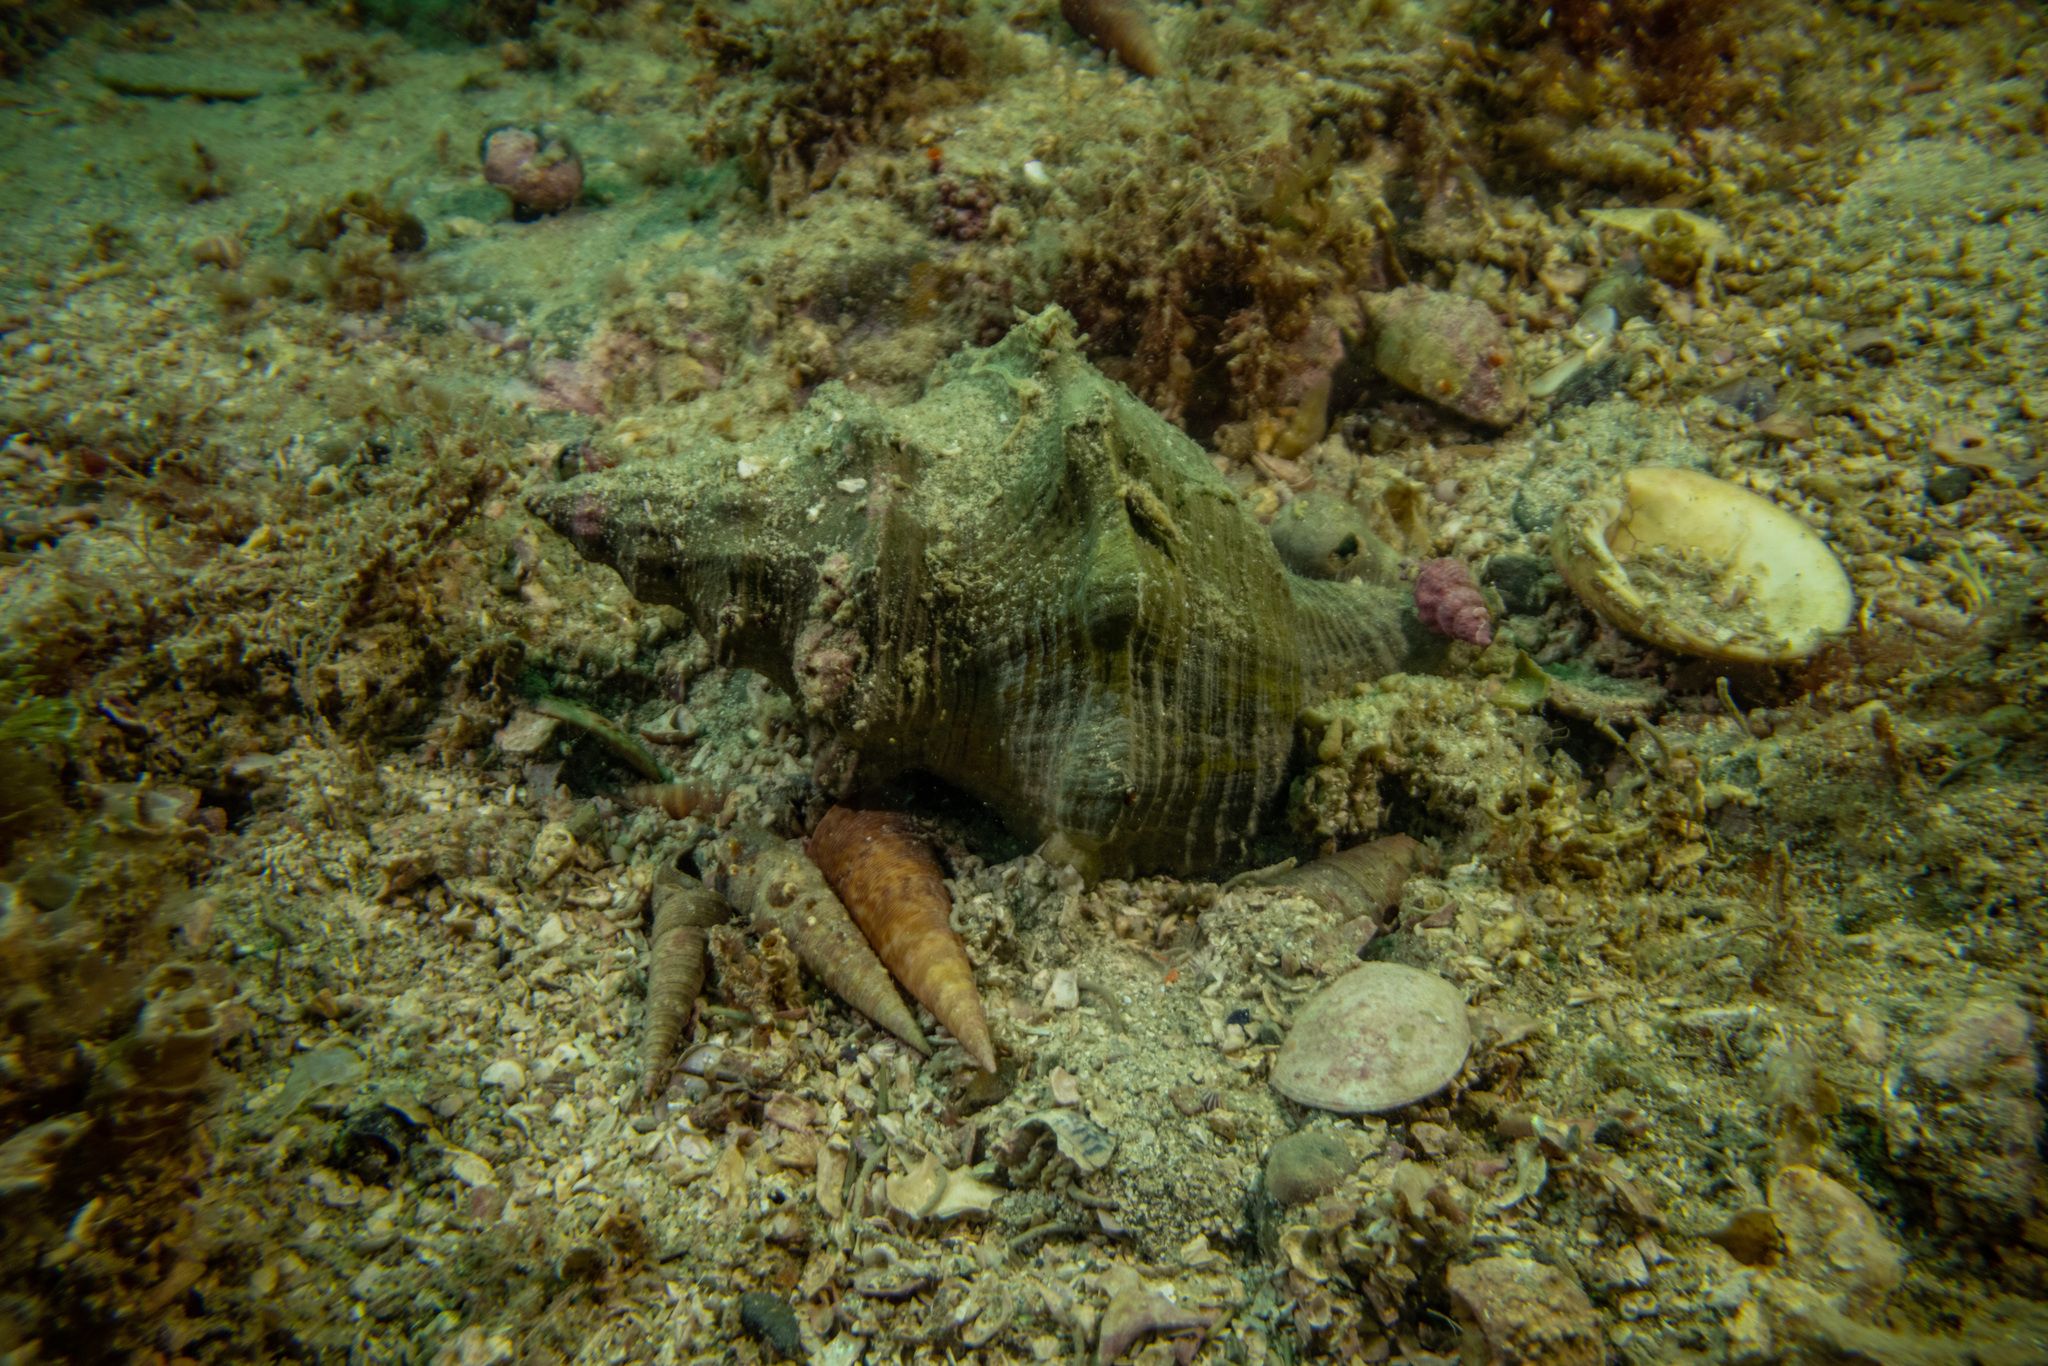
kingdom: Animalia
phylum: Mollusca
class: Gastropoda
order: Neogastropoda
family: Austrosiphonidae
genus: Penion
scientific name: Penion sulcatus
